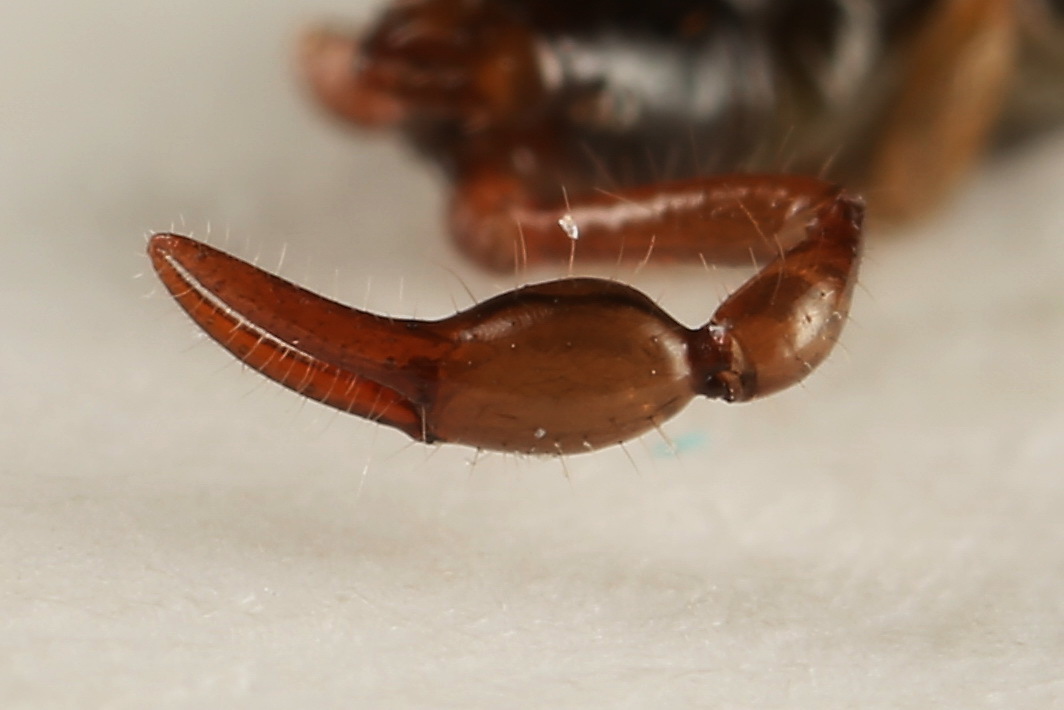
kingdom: Animalia
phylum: Arthropoda
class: Arachnida
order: Pseudoscorpiones
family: Neobisiidae
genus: Neobisium
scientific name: Neobisium carpenteri
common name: Carpenter's neobisid
